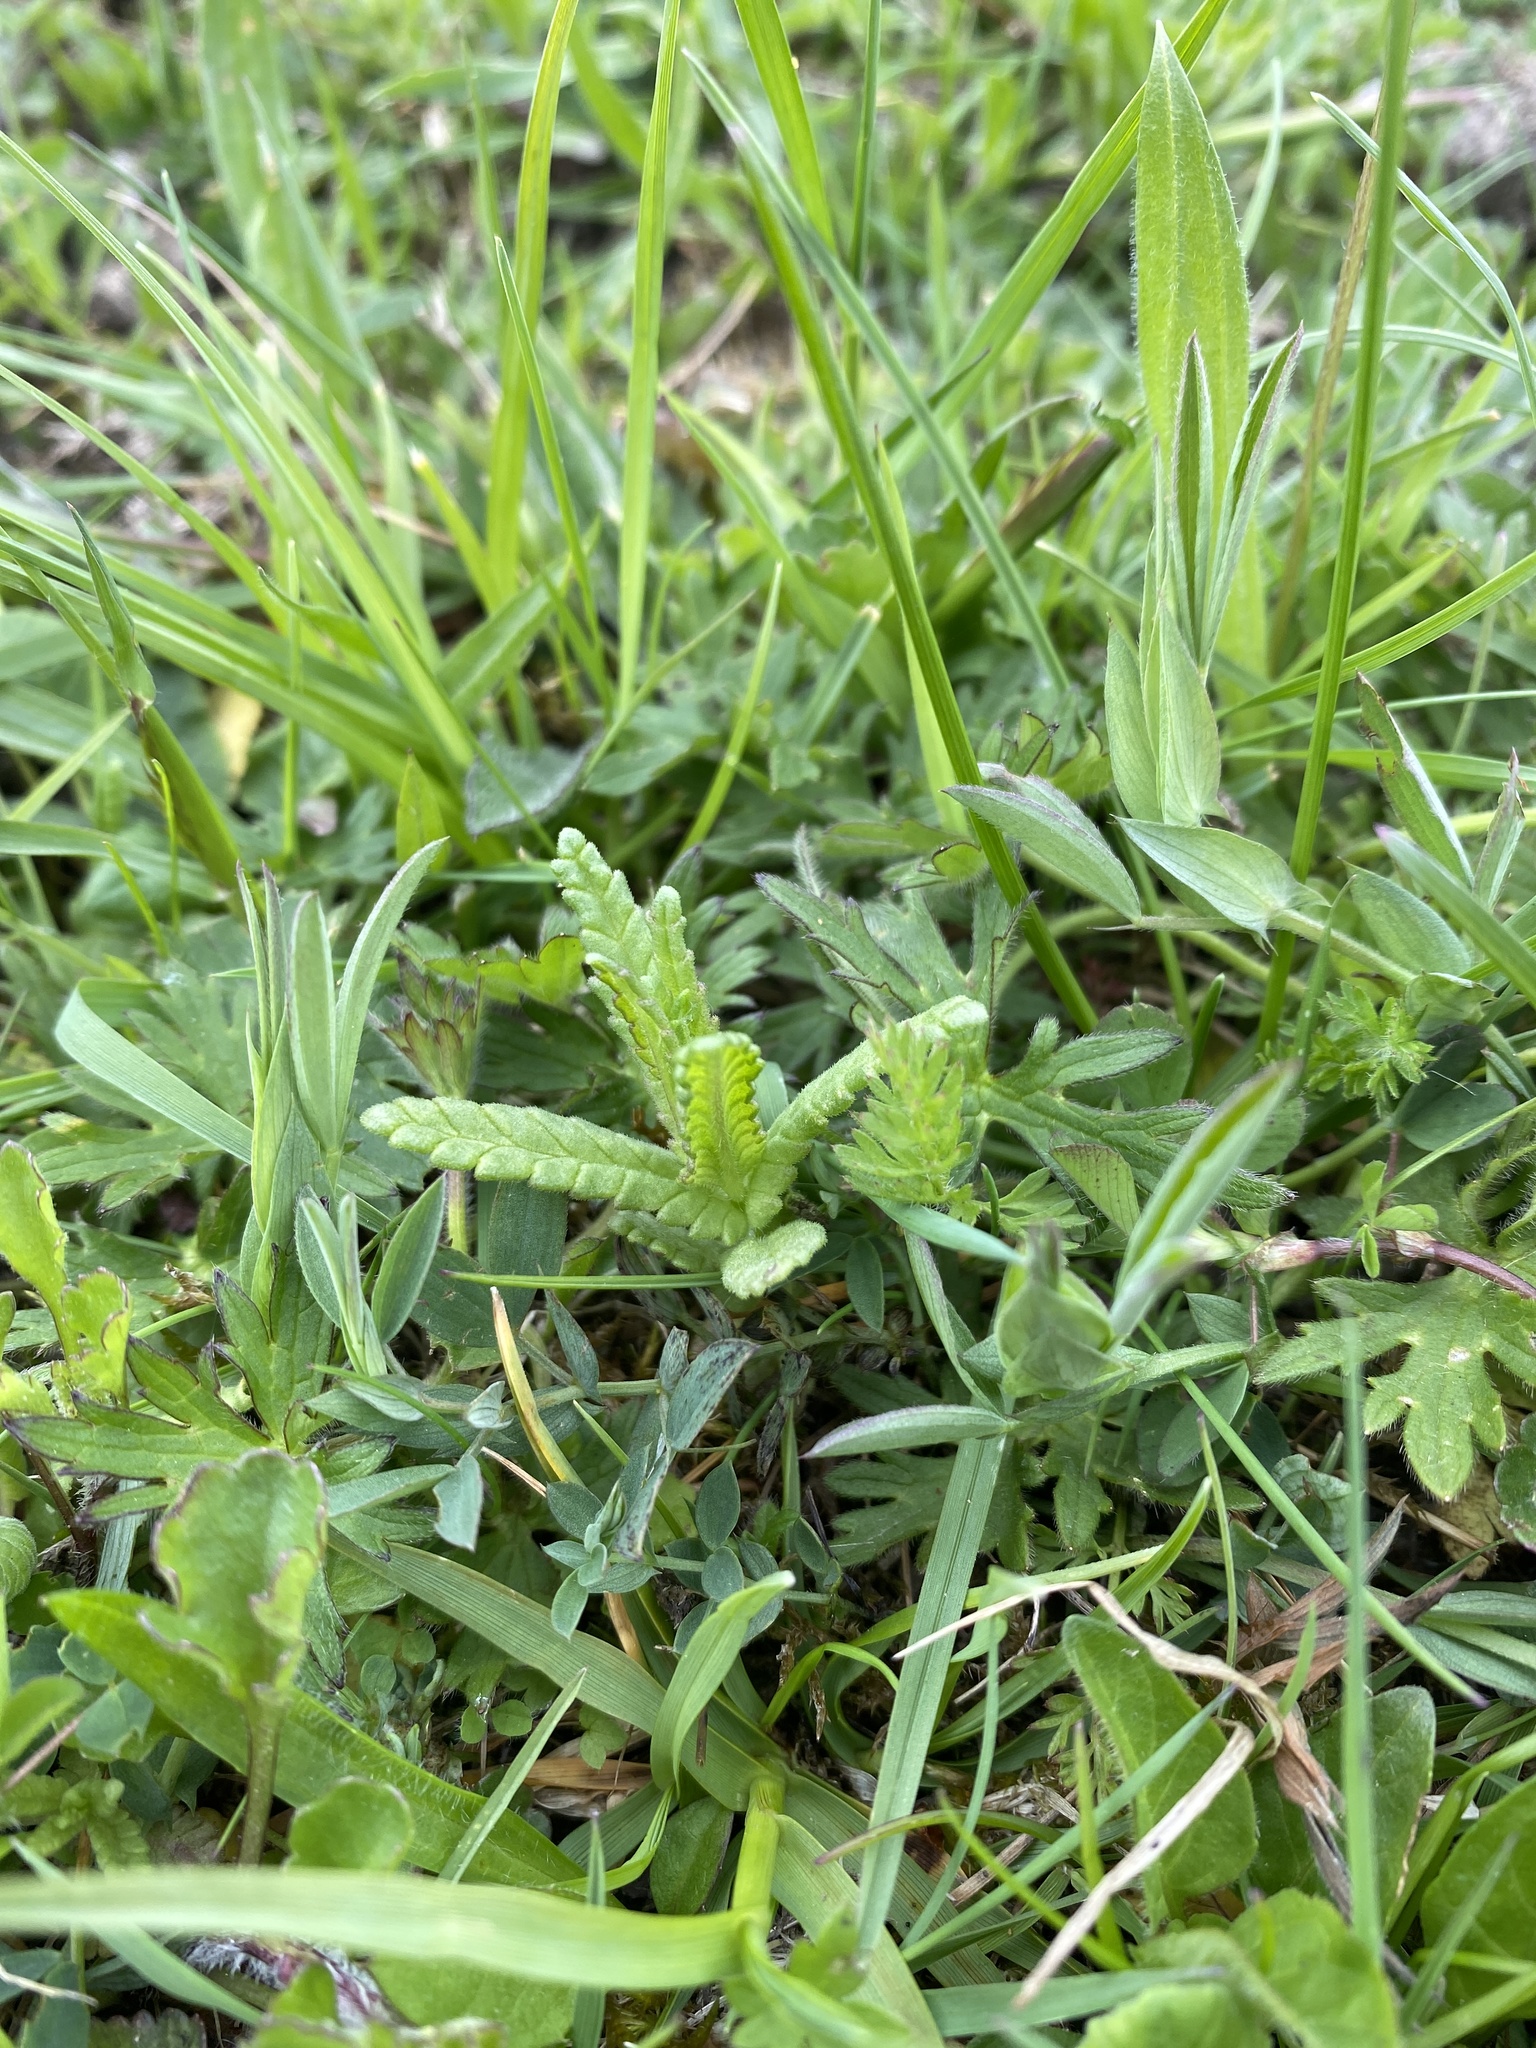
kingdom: Plantae
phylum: Tracheophyta
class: Magnoliopsida
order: Lamiales
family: Orobanchaceae
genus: Rhinanthus
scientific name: Rhinanthus minor
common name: Yellow-rattle
